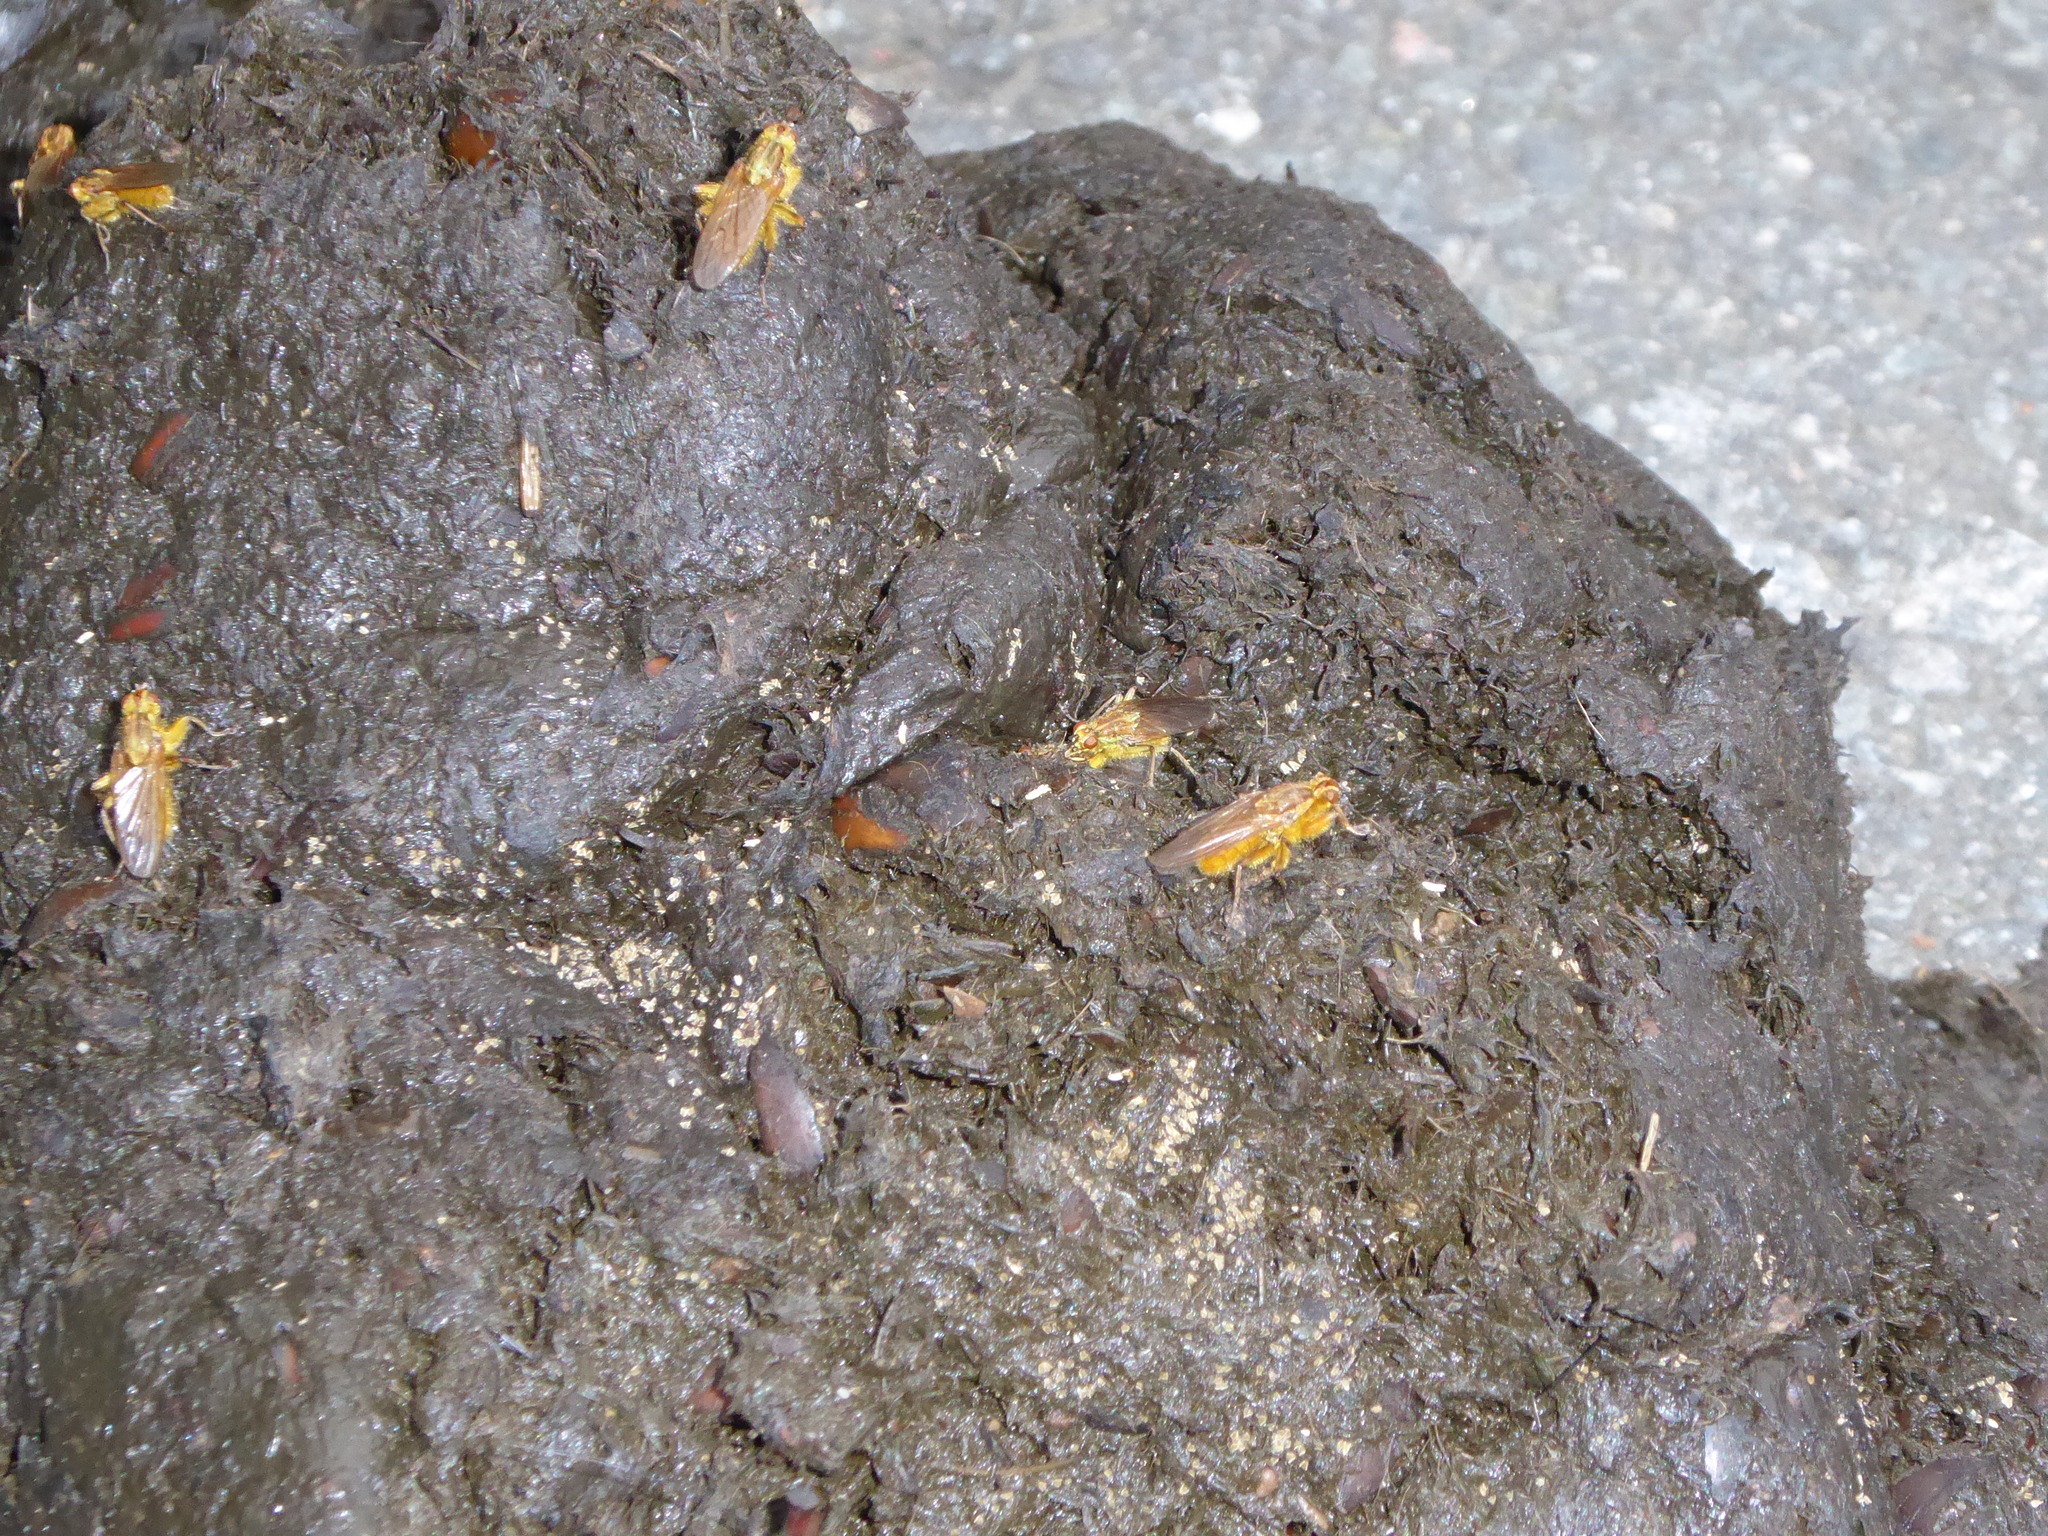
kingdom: Animalia
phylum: Arthropoda
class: Insecta
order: Diptera
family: Scathophagidae
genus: Scathophaga
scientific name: Scathophaga stercoraria
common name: Yellow dung fly
